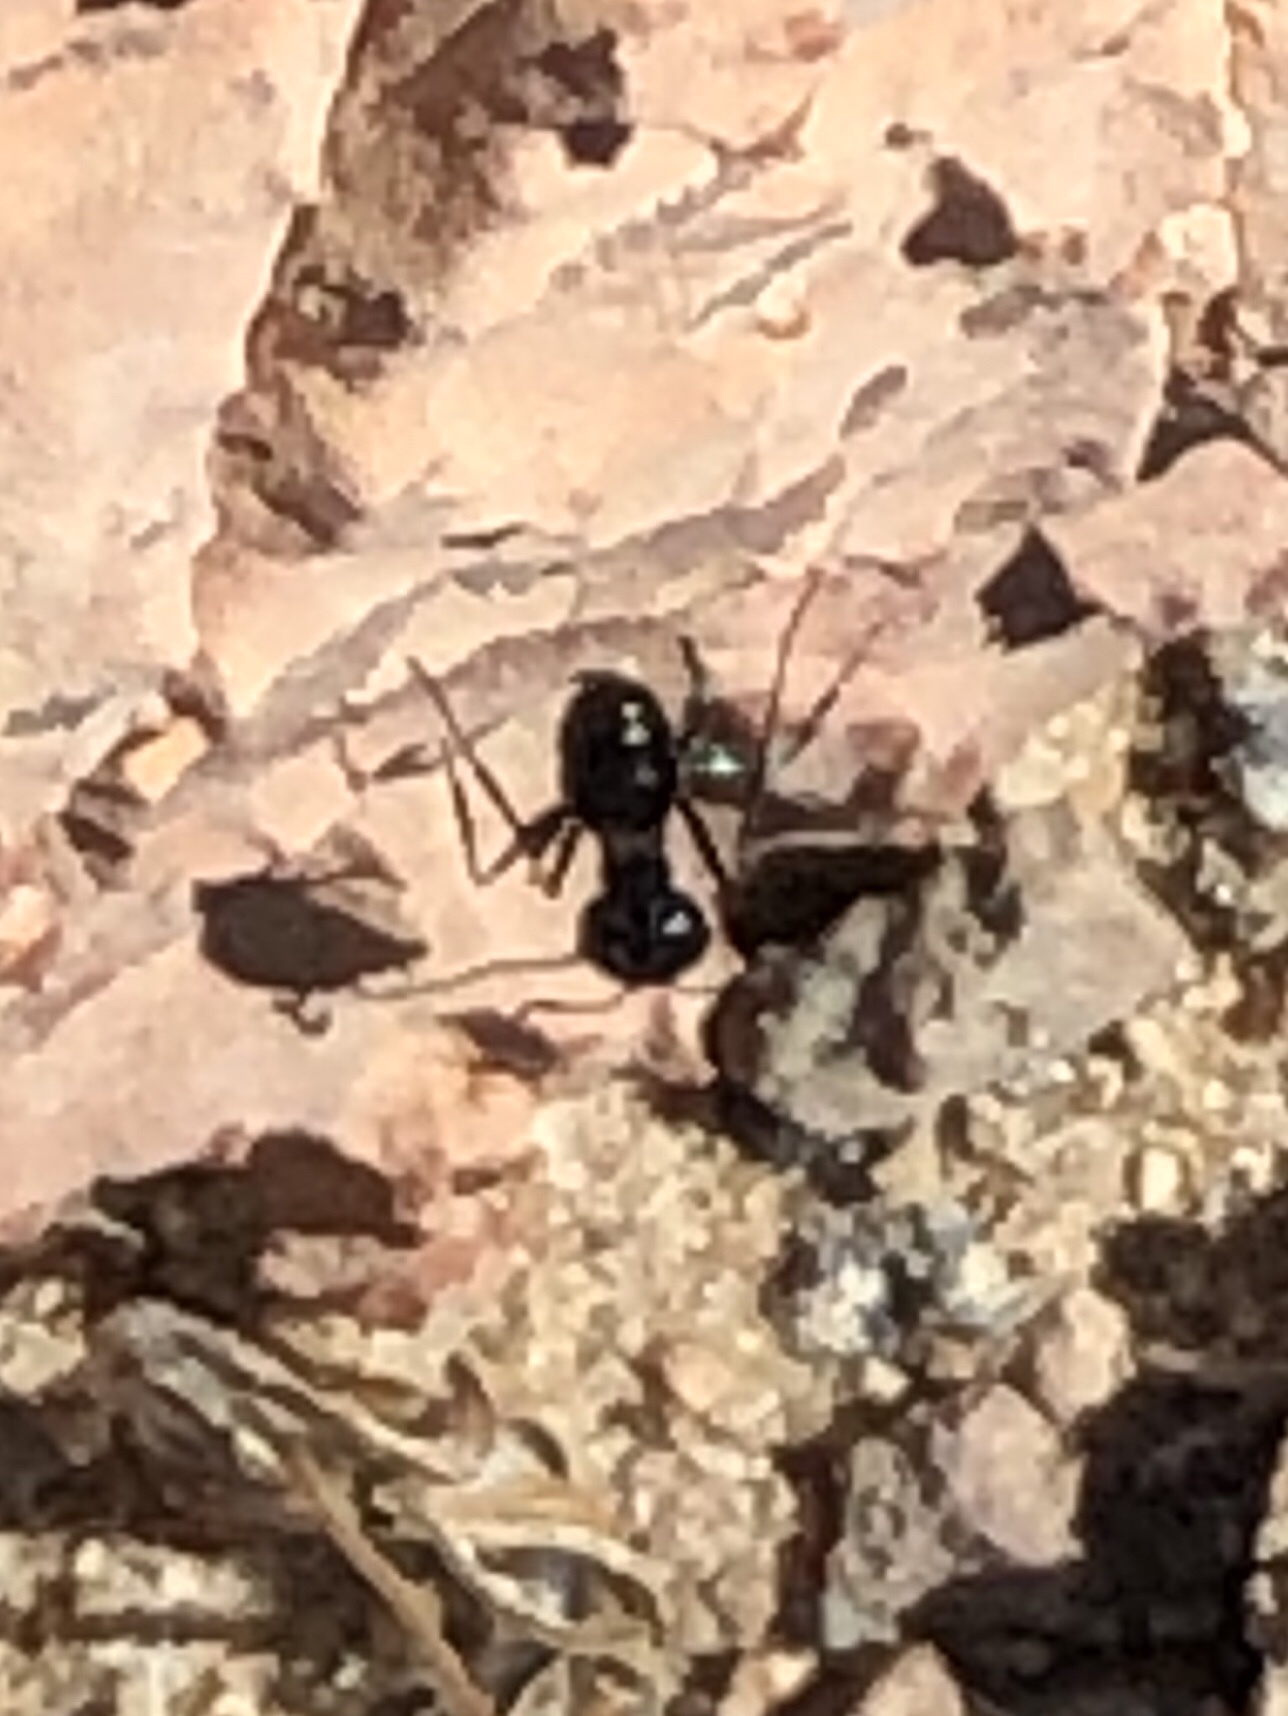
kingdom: Animalia
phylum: Arthropoda
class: Insecta
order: Hymenoptera
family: Formicidae
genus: Messor
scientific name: Messor pergandei
